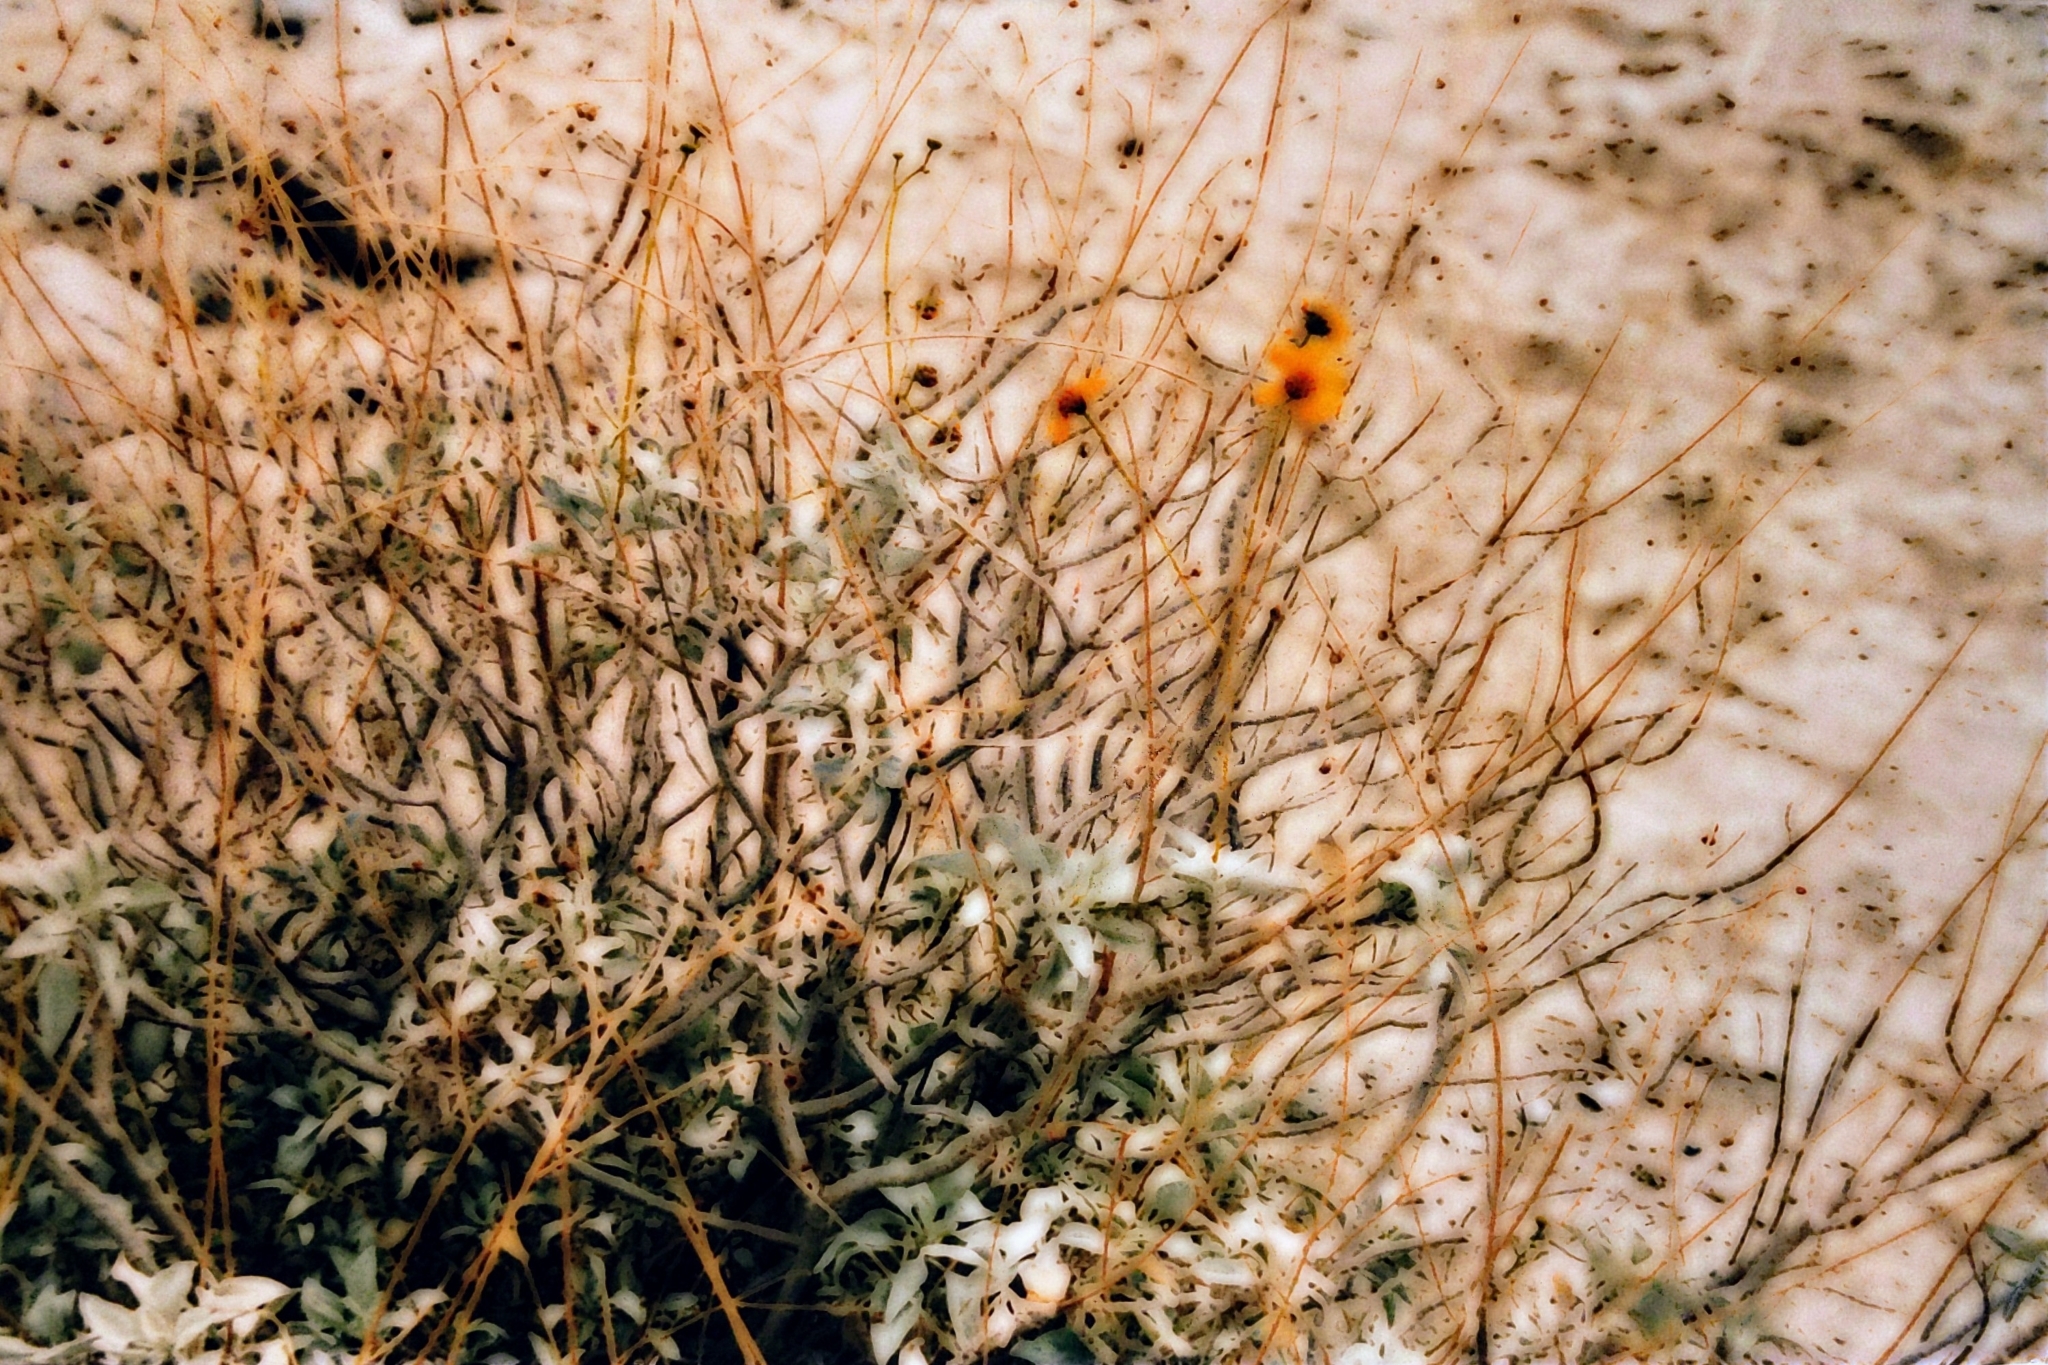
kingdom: Plantae
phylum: Tracheophyta
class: Magnoliopsida
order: Asterales
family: Asteraceae
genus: Encelia
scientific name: Encelia farinosa
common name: Brittlebush
